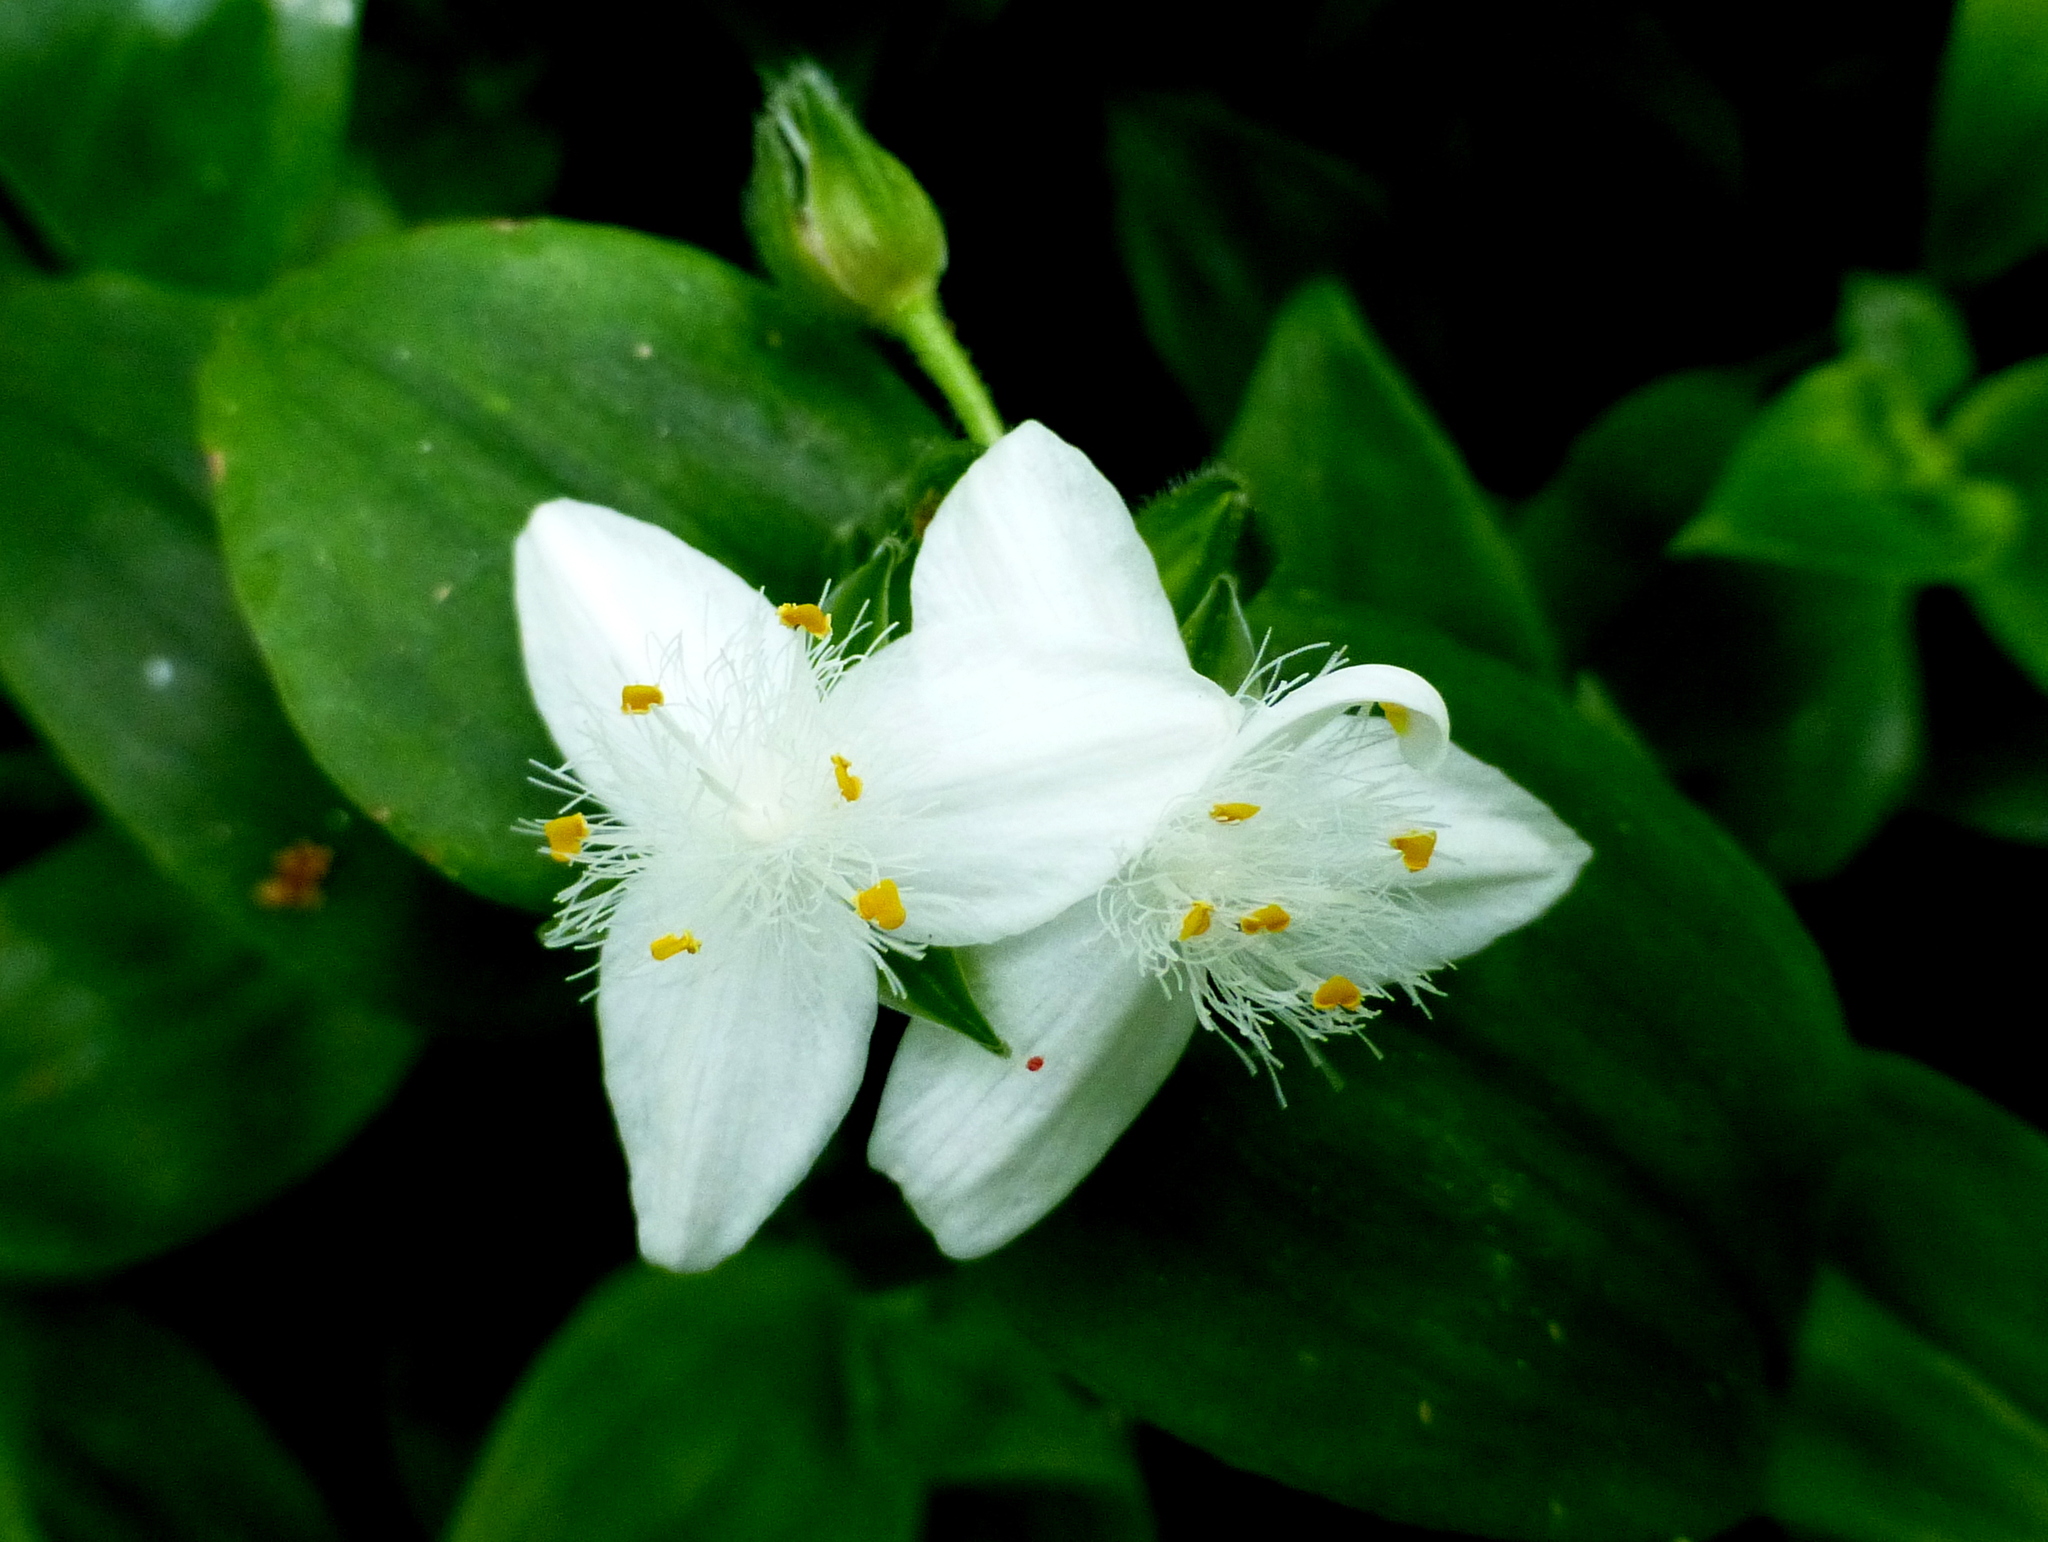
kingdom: Plantae
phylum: Tracheophyta
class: Liliopsida
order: Commelinales
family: Commelinaceae
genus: Tradescantia
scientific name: Tradescantia fluminensis
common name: Wandering-jew
